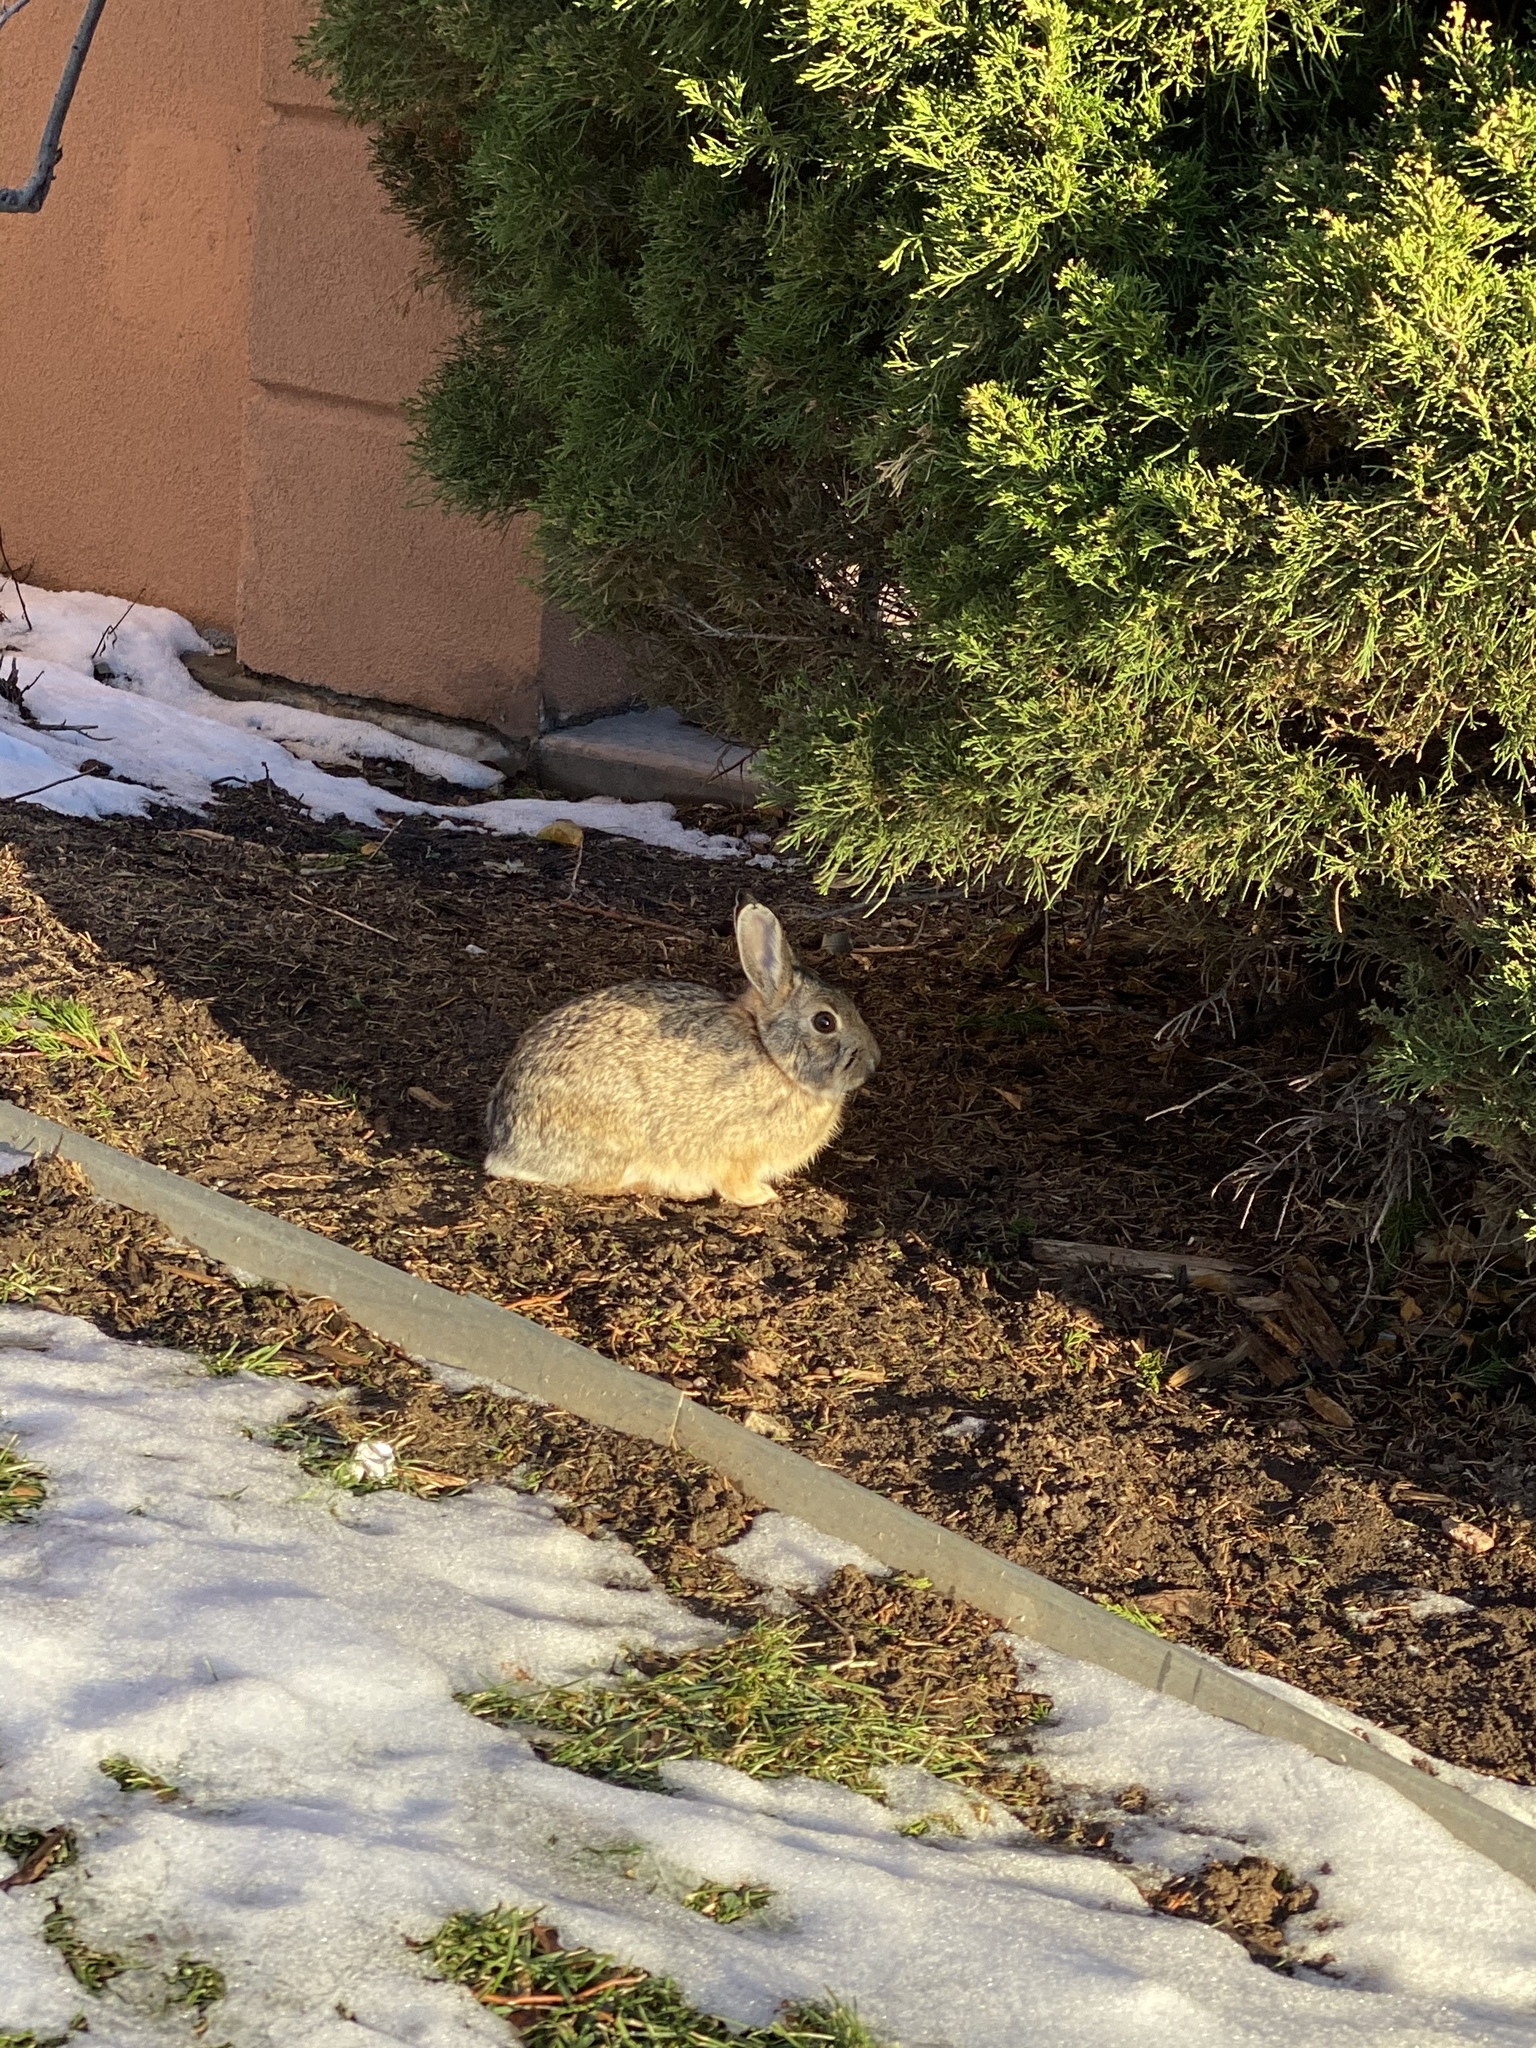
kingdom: Animalia
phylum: Chordata
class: Mammalia
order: Lagomorpha
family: Leporidae
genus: Sylvilagus
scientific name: Sylvilagus nuttallii
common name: Mountain cottontail
